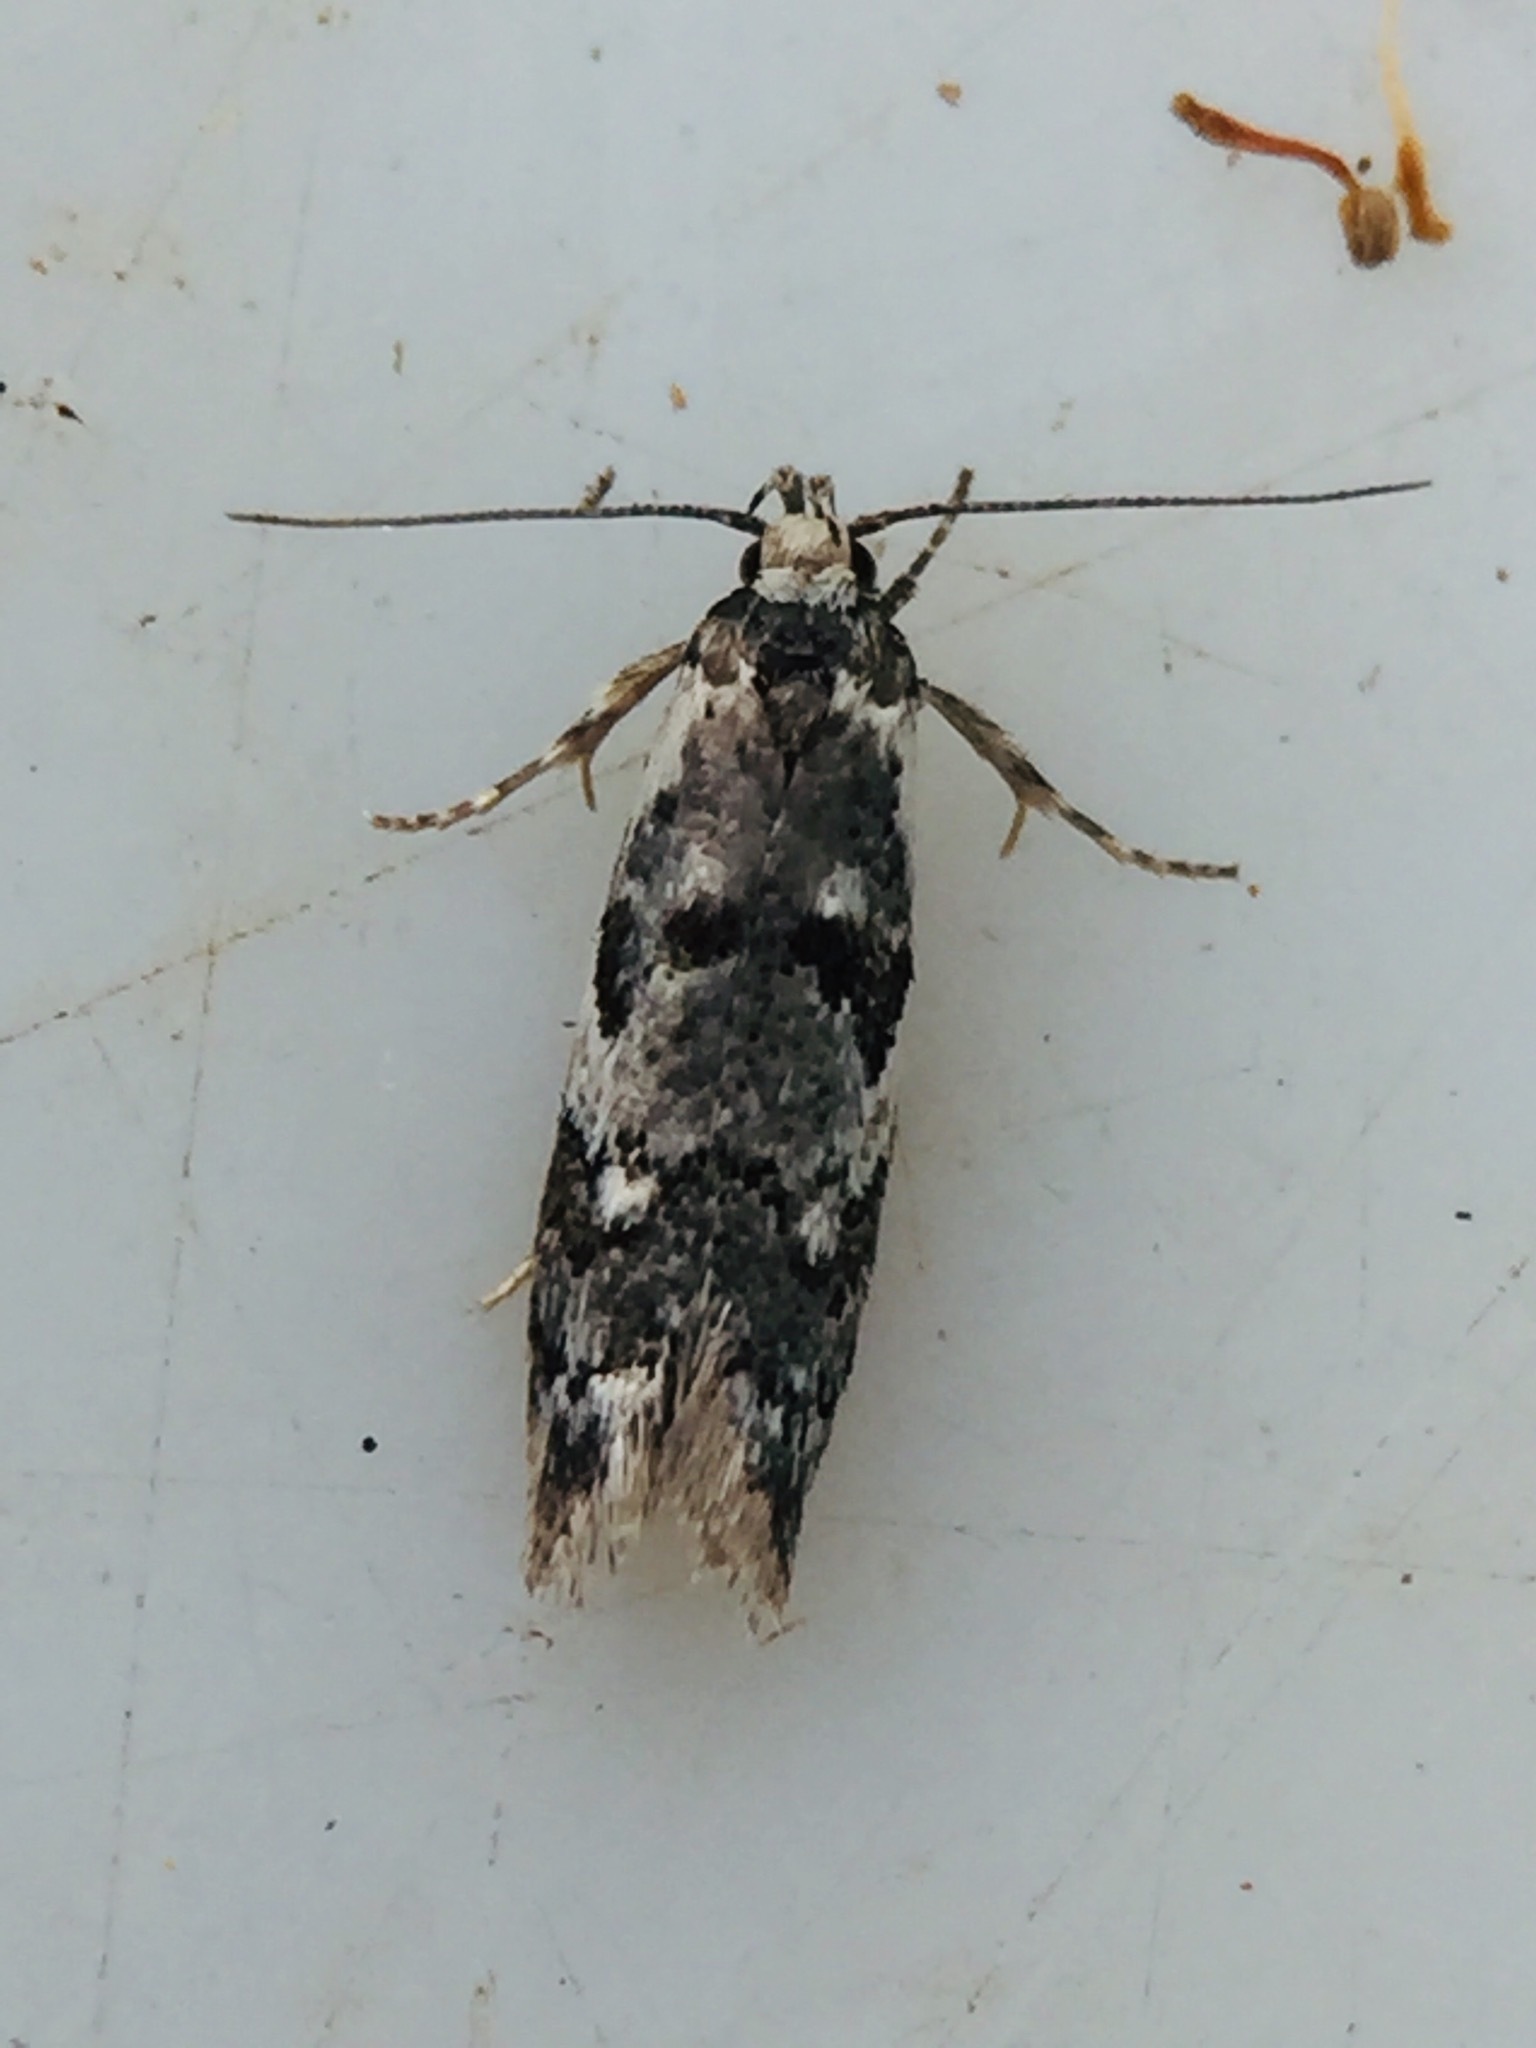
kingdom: Animalia
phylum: Arthropoda
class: Insecta
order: Lepidoptera
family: Oecophoridae
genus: Trachypepla
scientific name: Trachypepla galaxias
